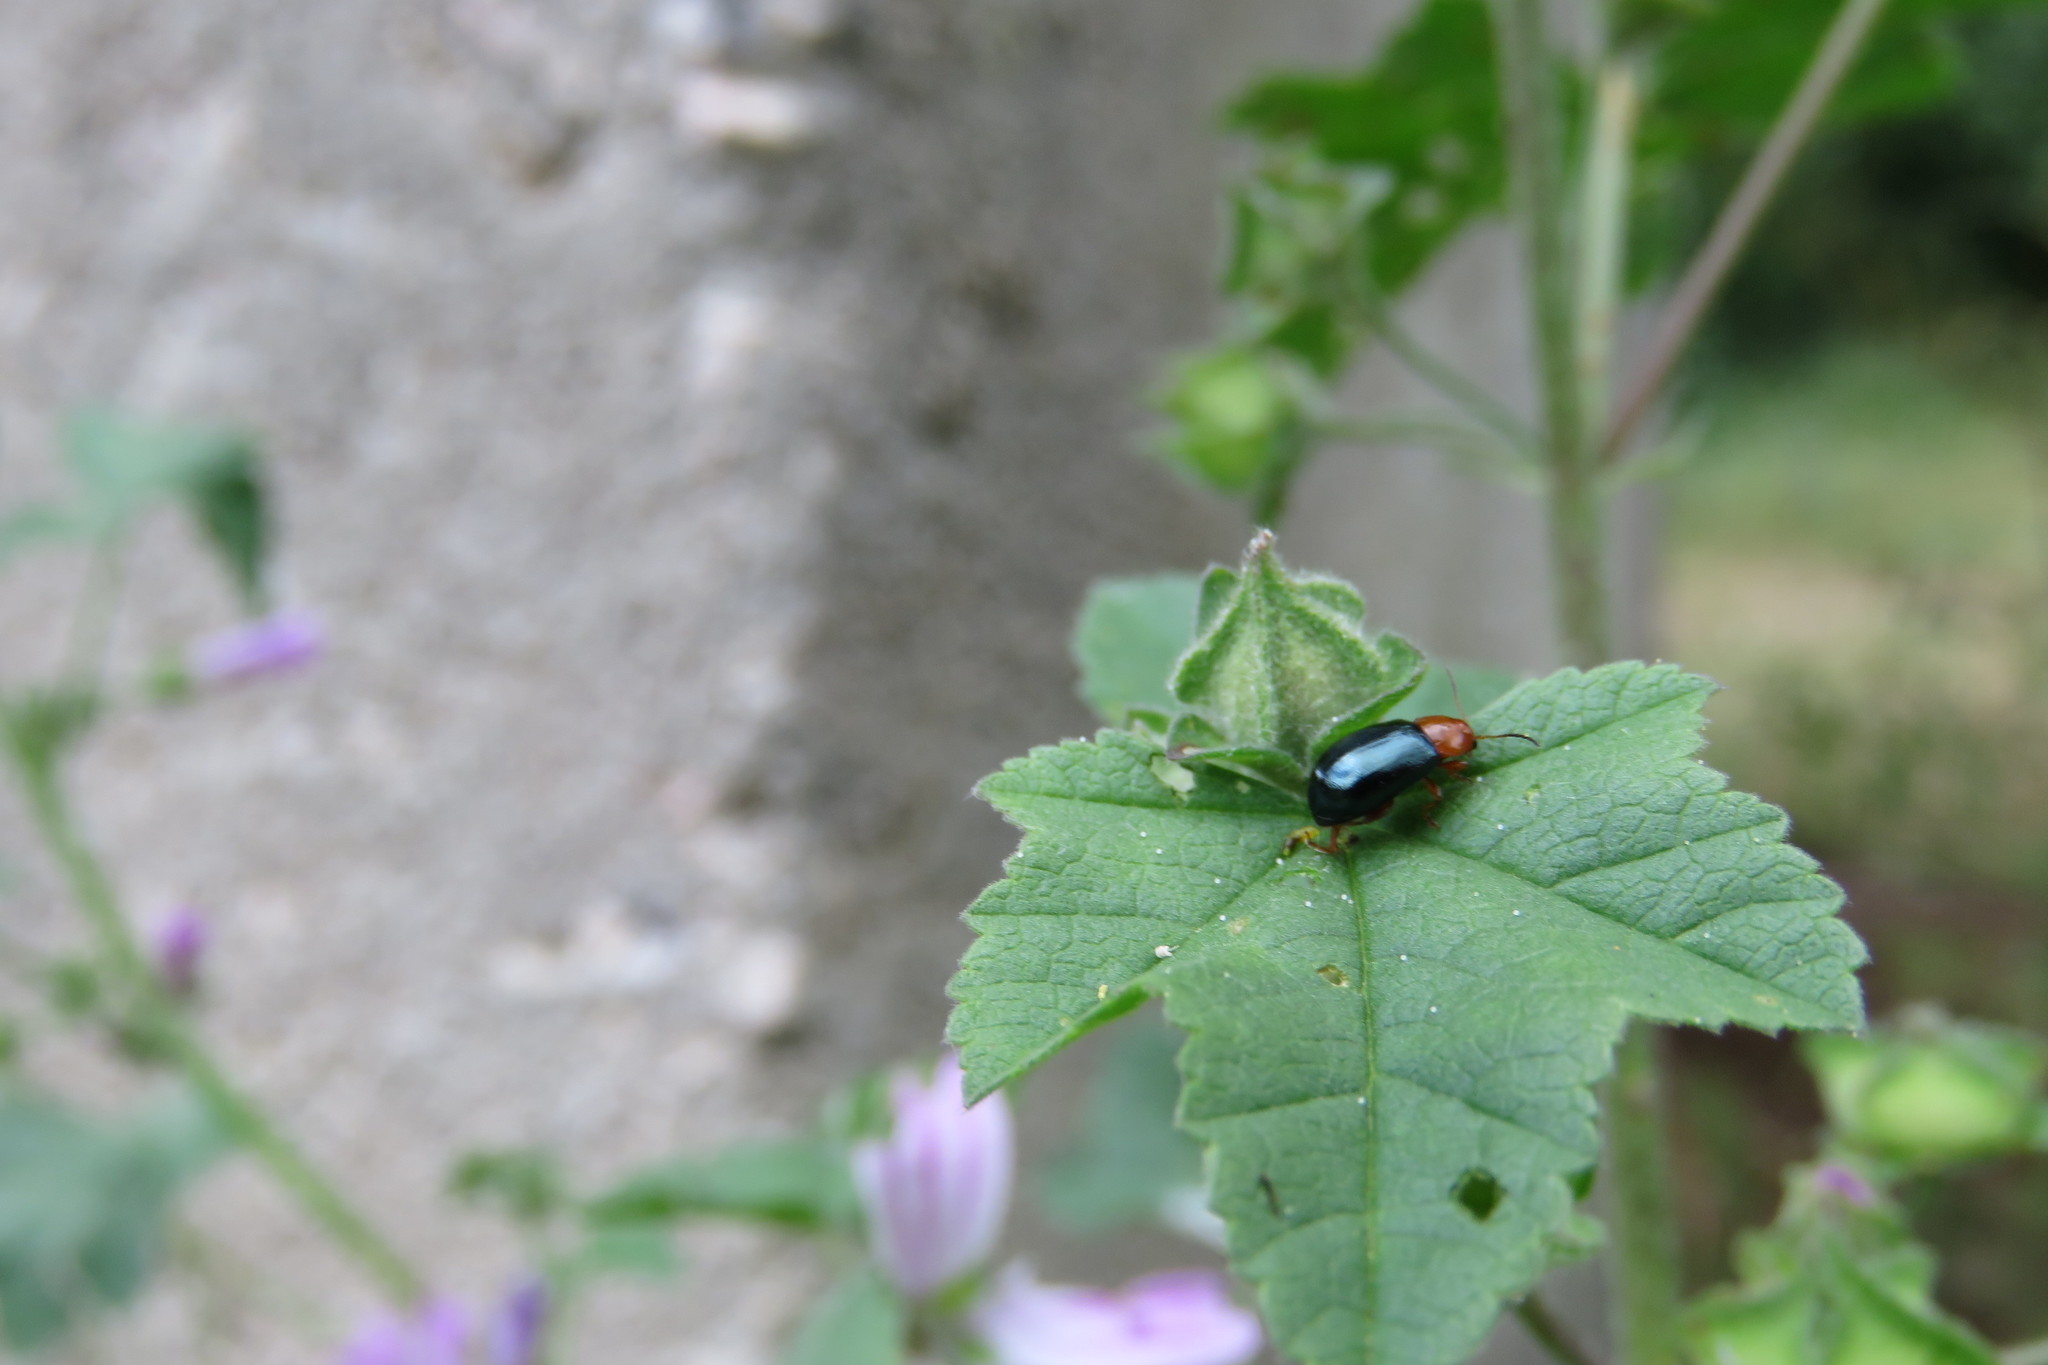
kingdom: Animalia
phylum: Arthropoda
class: Insecta
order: Coleoptera
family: Chrysomelidae
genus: Podagrica
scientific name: Podagrica fuscicornis
